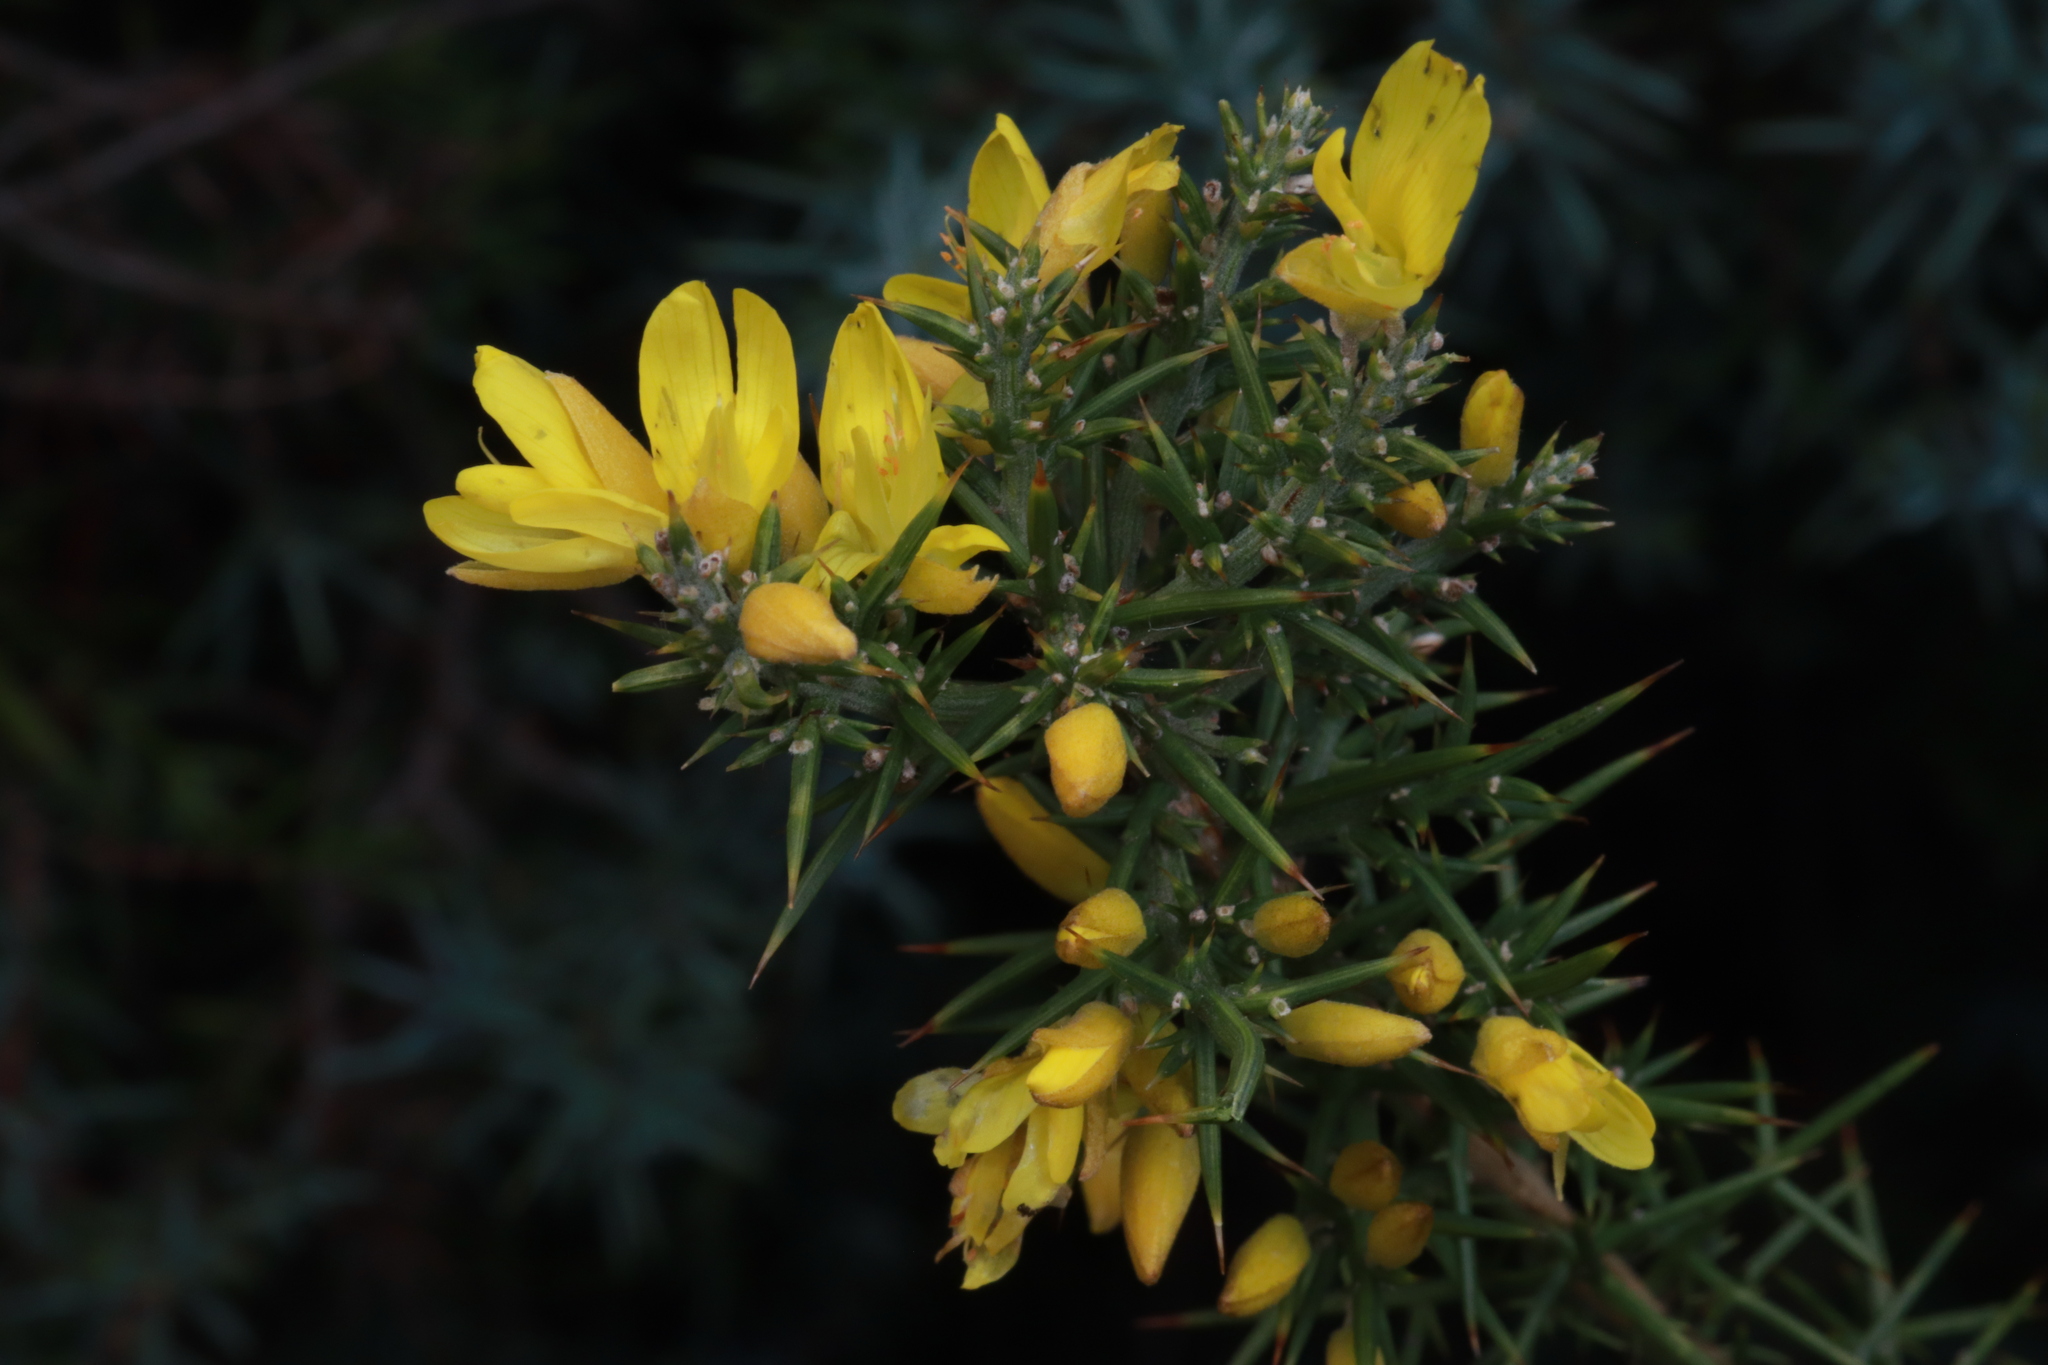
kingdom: Plantae
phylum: Tracheophyta
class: Magnoliopsida
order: Fabales
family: Fabaceae
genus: Ulex
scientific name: Ulex parviflorus
